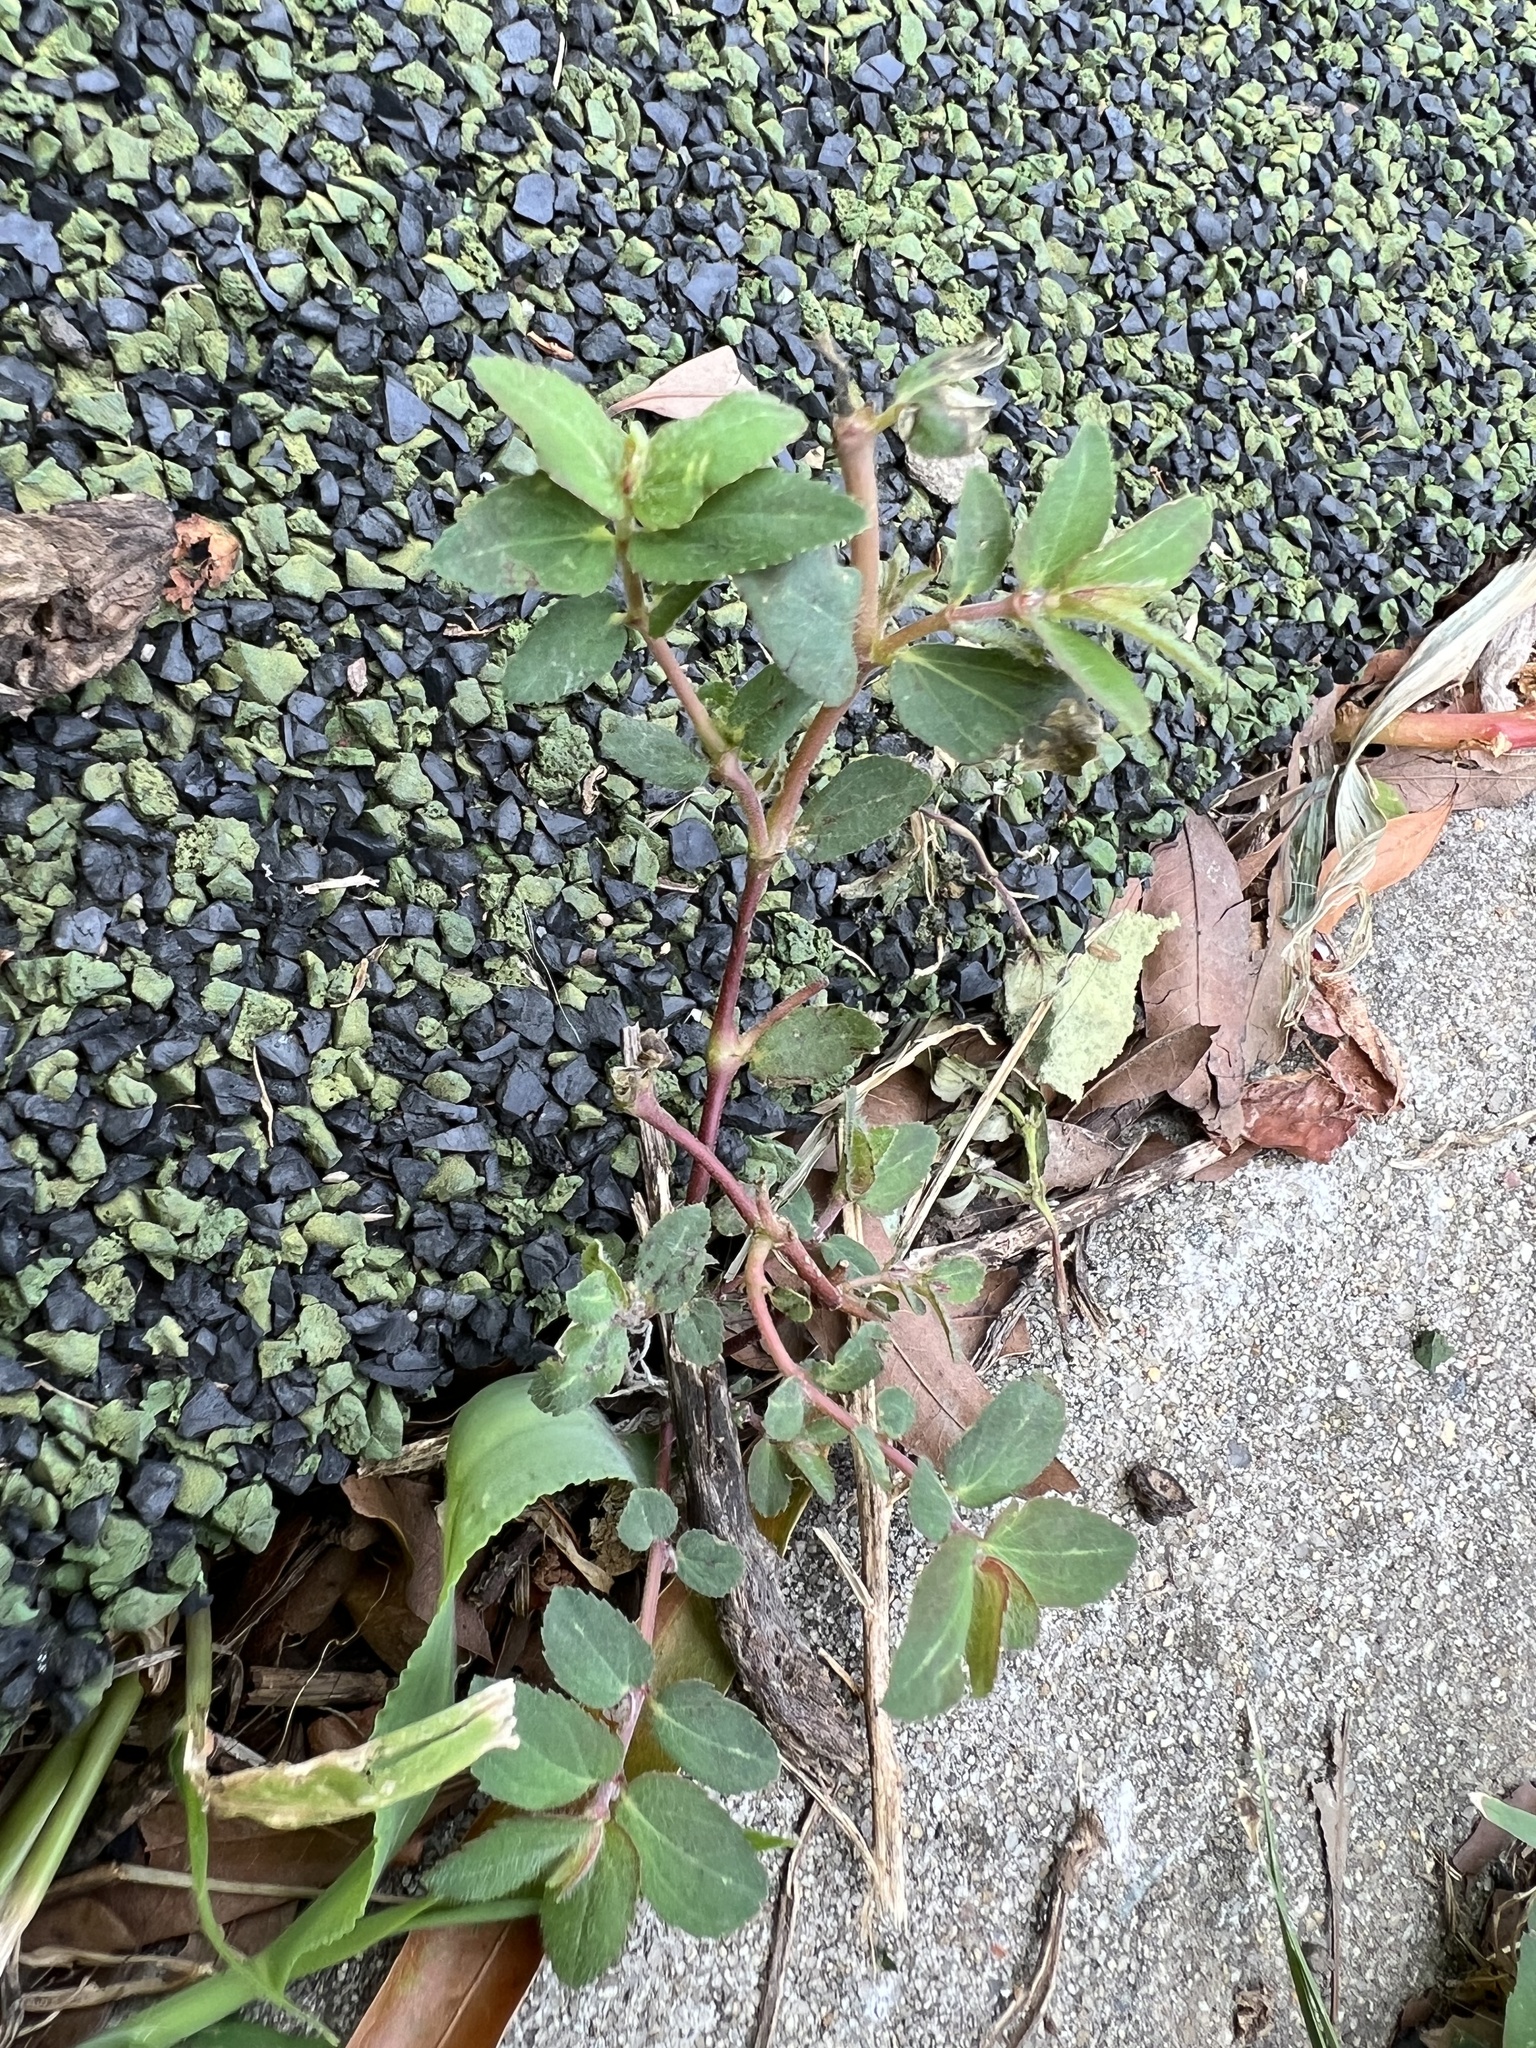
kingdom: Plantae
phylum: Tracheophyta
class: Magnoliopsida
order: Malpighiales
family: Euphorbiaceae
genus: Euphorbia
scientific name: Euphorbia nutans
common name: Eyebane
